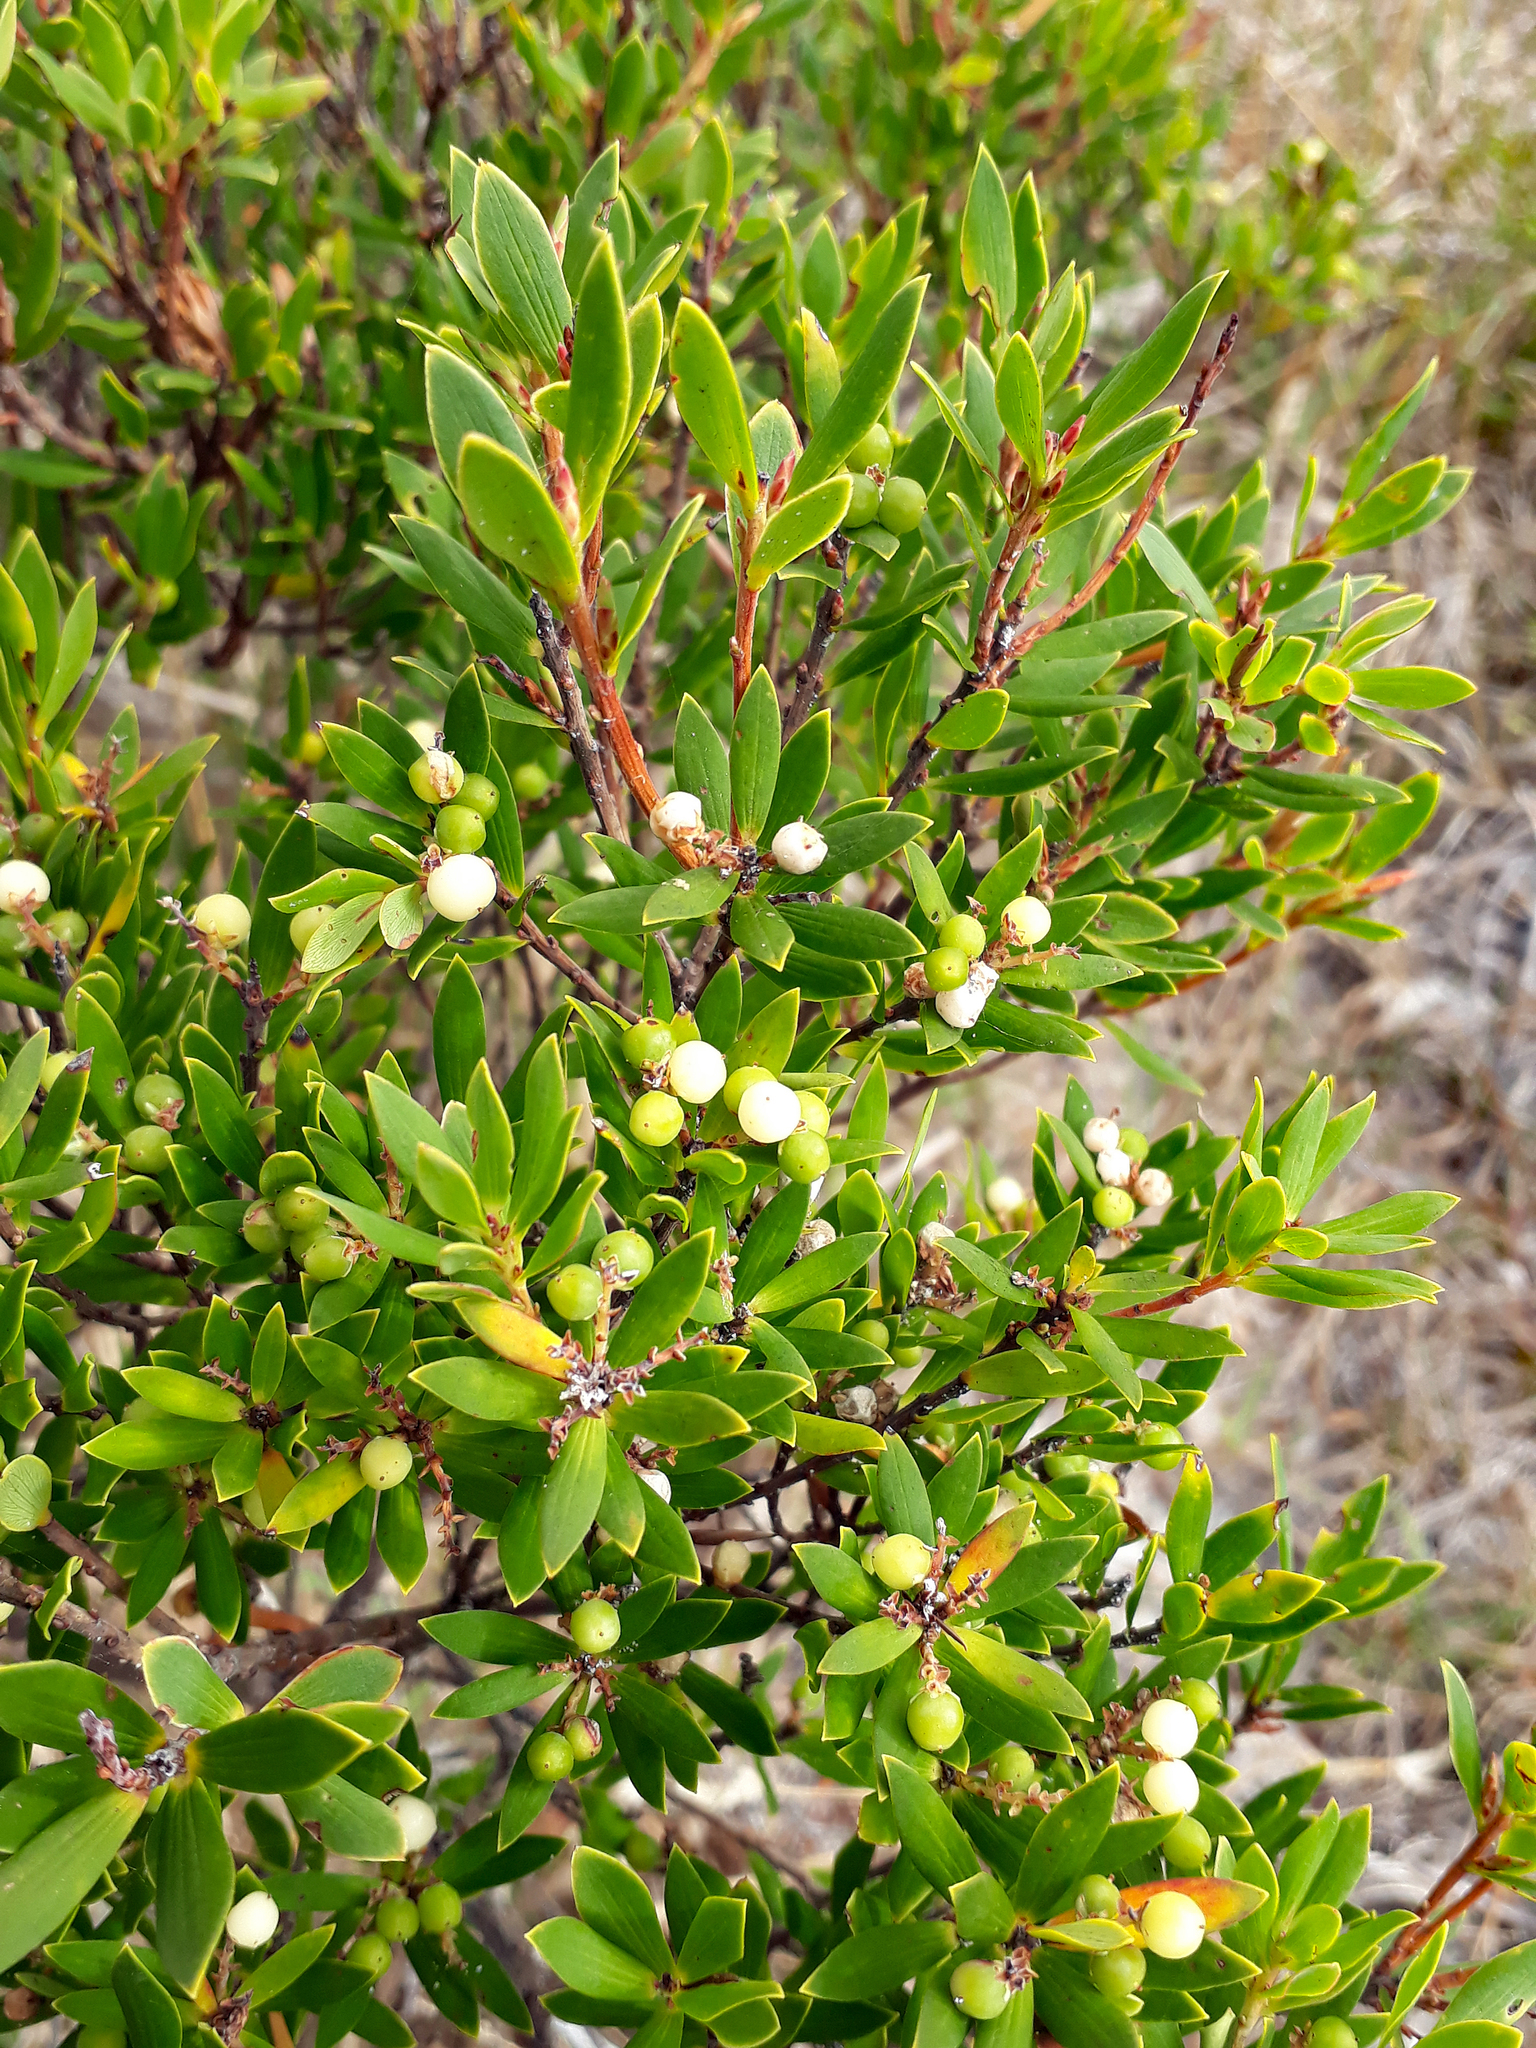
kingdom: Plantae
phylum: Tracheophyta
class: Magnoliopsida
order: Ericales
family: Ericaceae
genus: Leptecophylla
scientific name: Leptecophylla parvifolia
